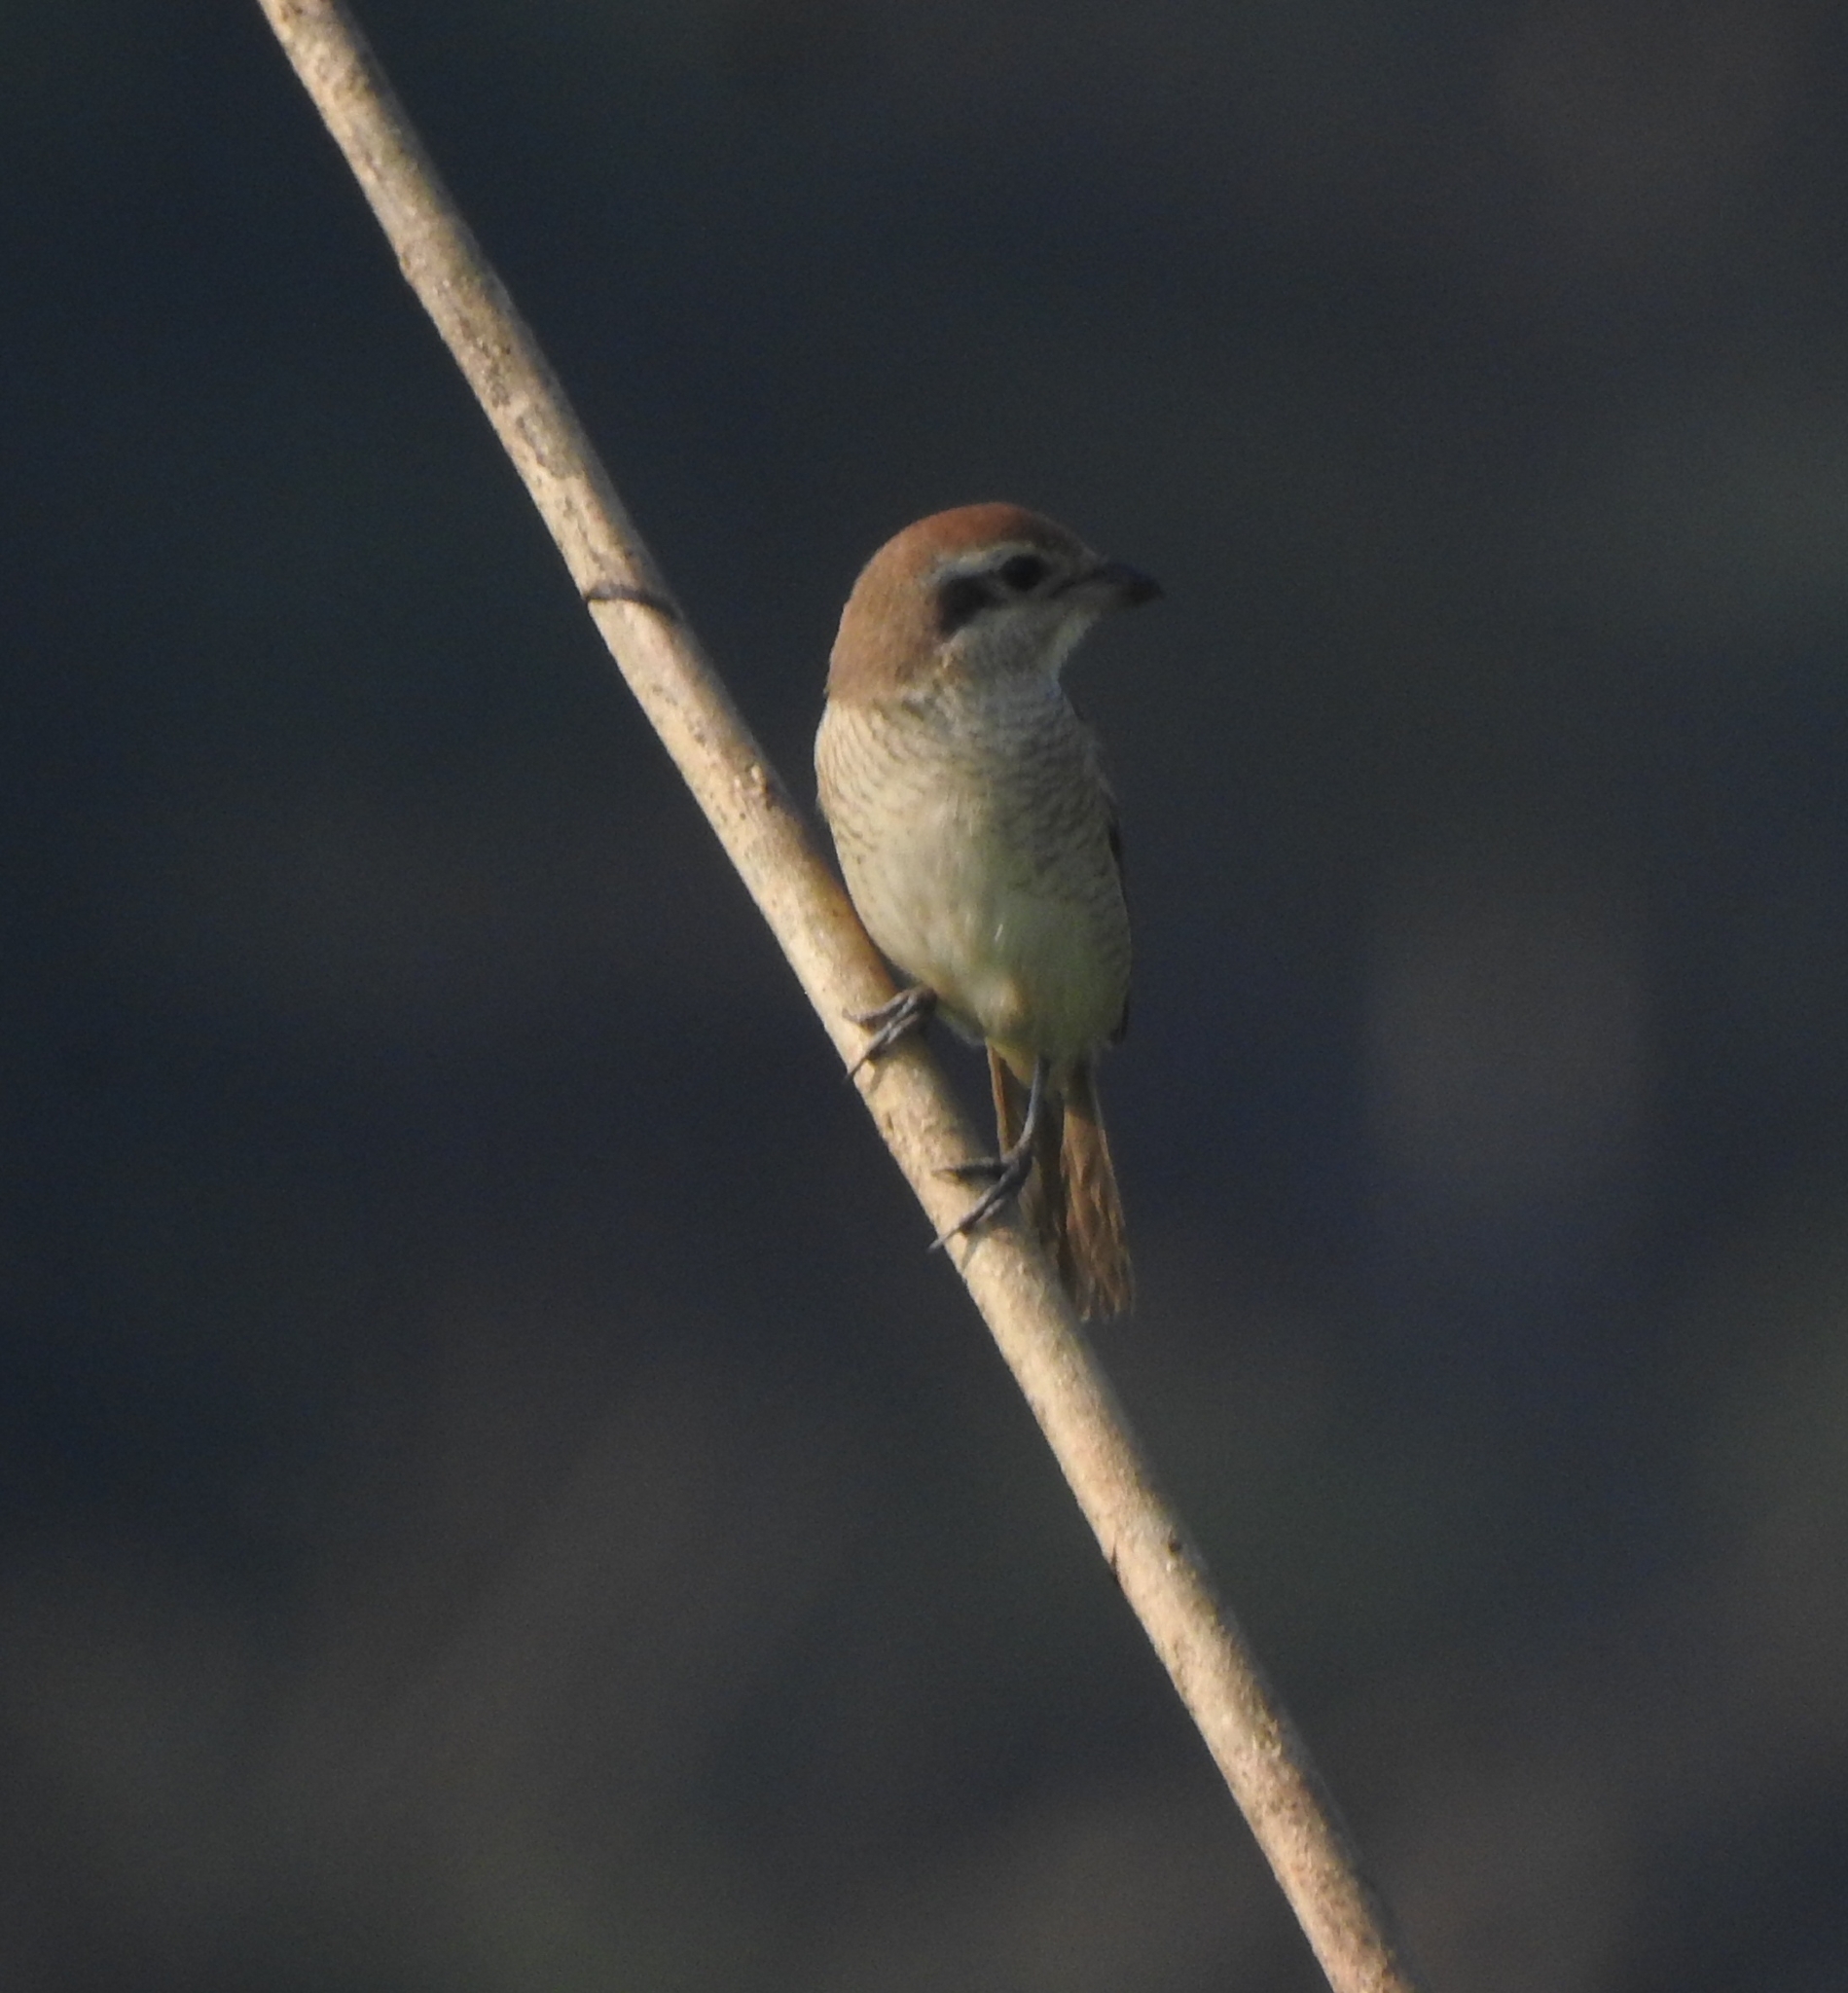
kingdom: Animalia
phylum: Chordata
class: Aves
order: Passeriformes
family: Laniidae
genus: Lanius
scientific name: Lanius cristatus
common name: Brown shrike
